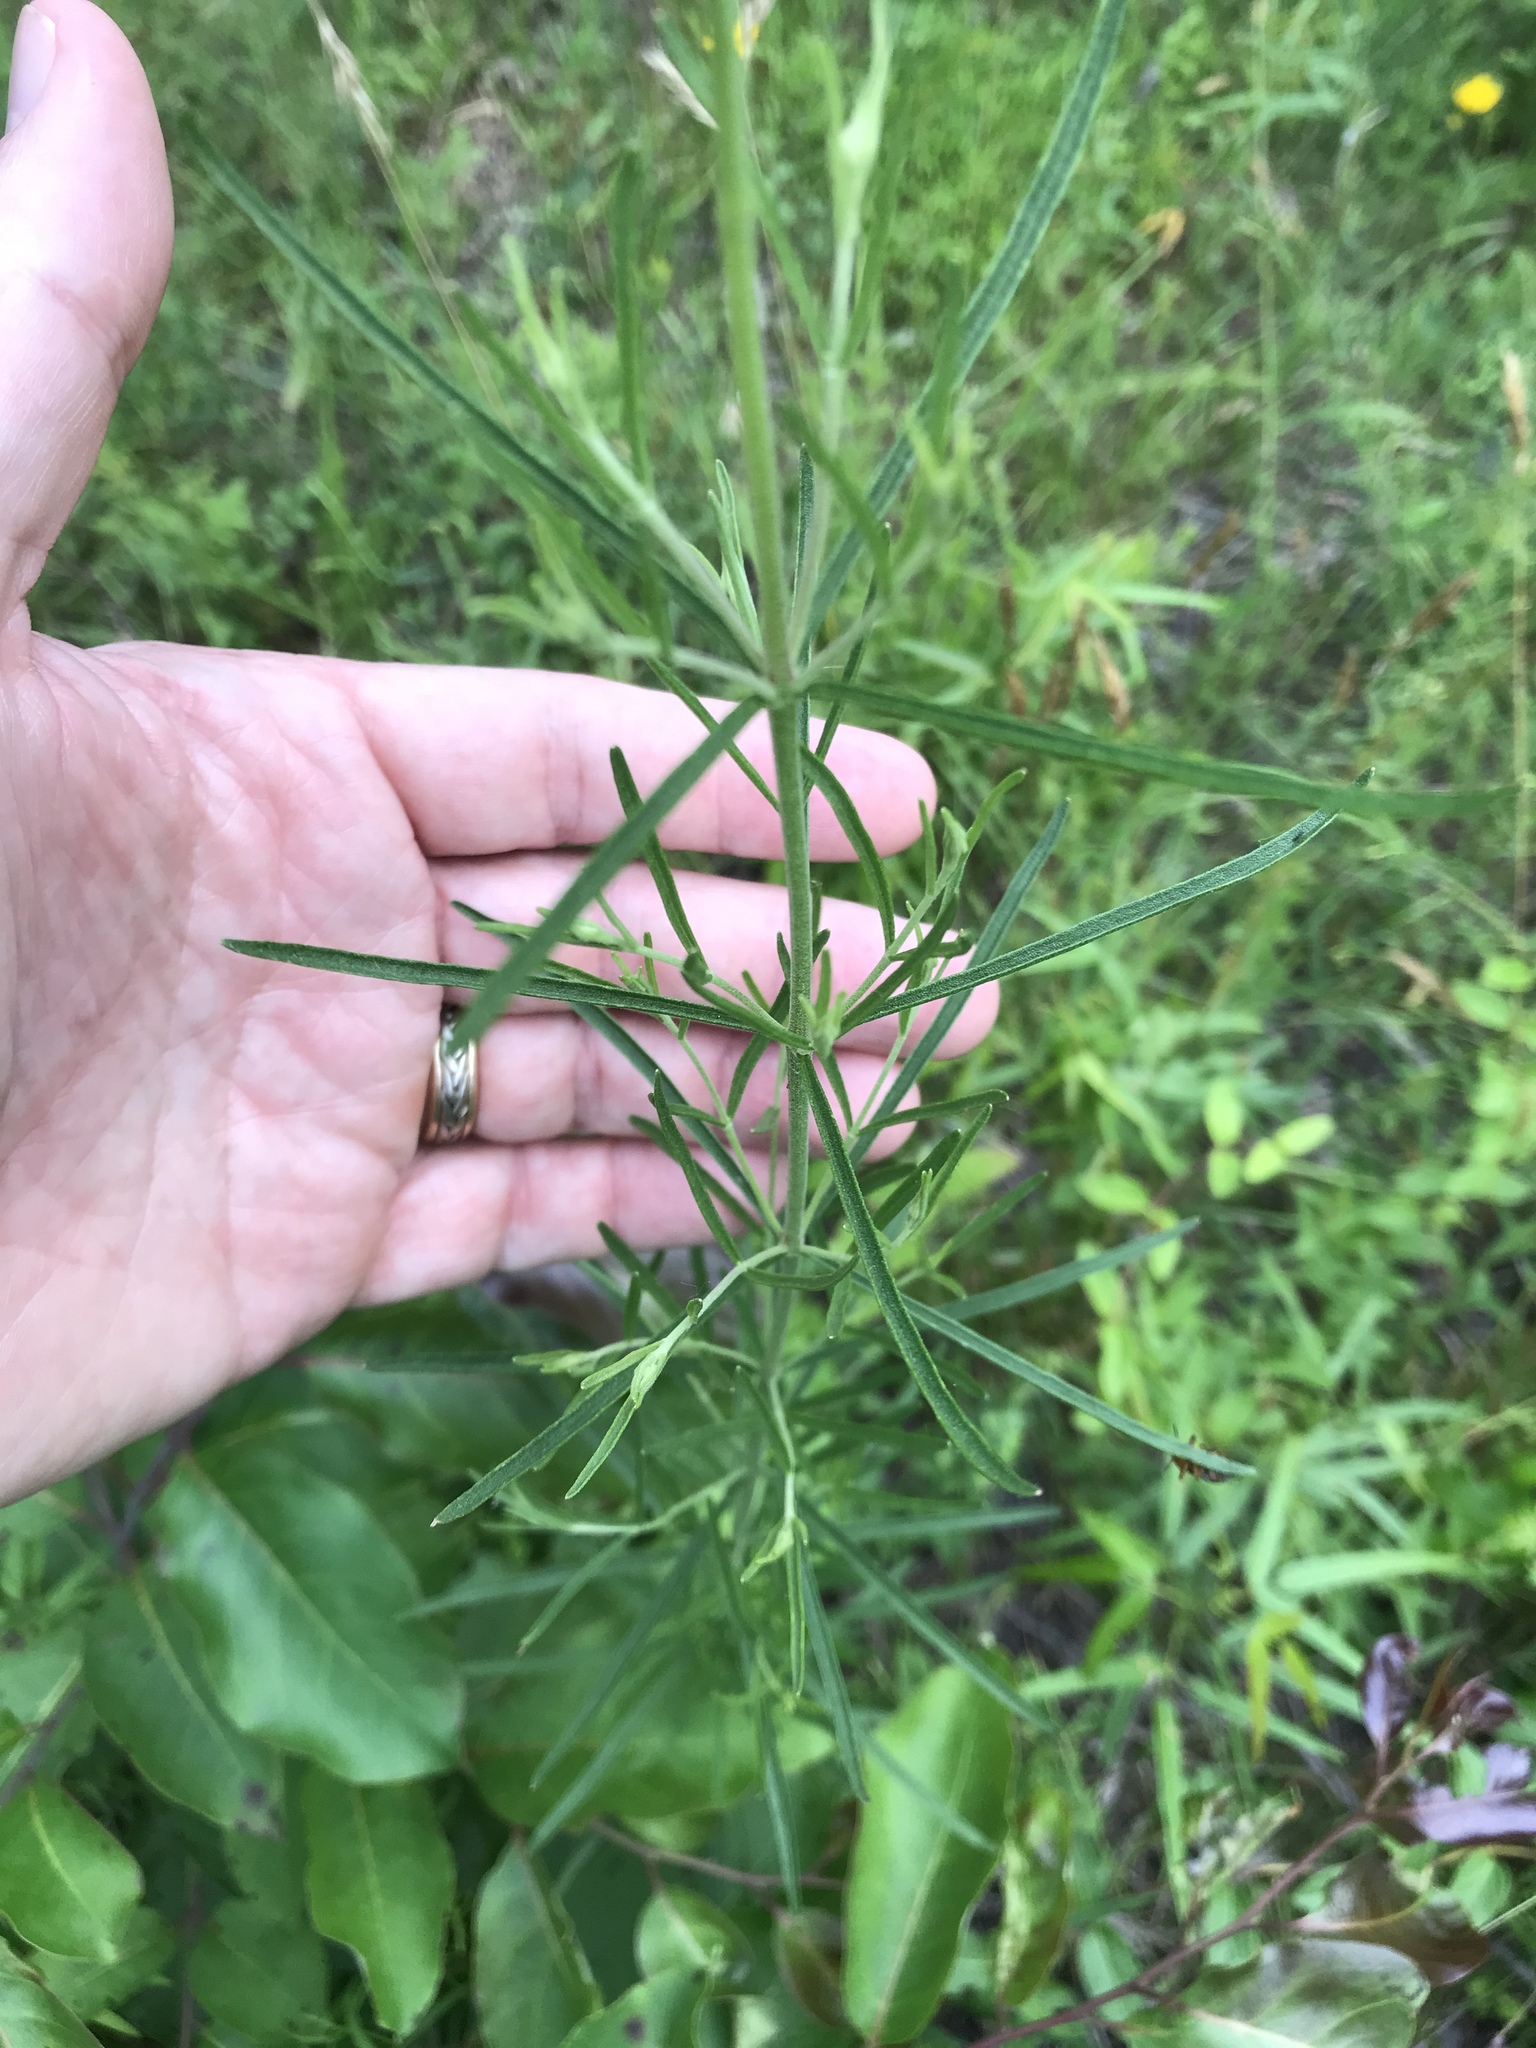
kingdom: Plantae
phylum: Tracheophyta
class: Magnoliopsida
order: Asterales
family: Asteraceae
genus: Eupatorium
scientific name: Eupatorium hyssopifolium
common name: Hyssop-leaf thoroughwort
